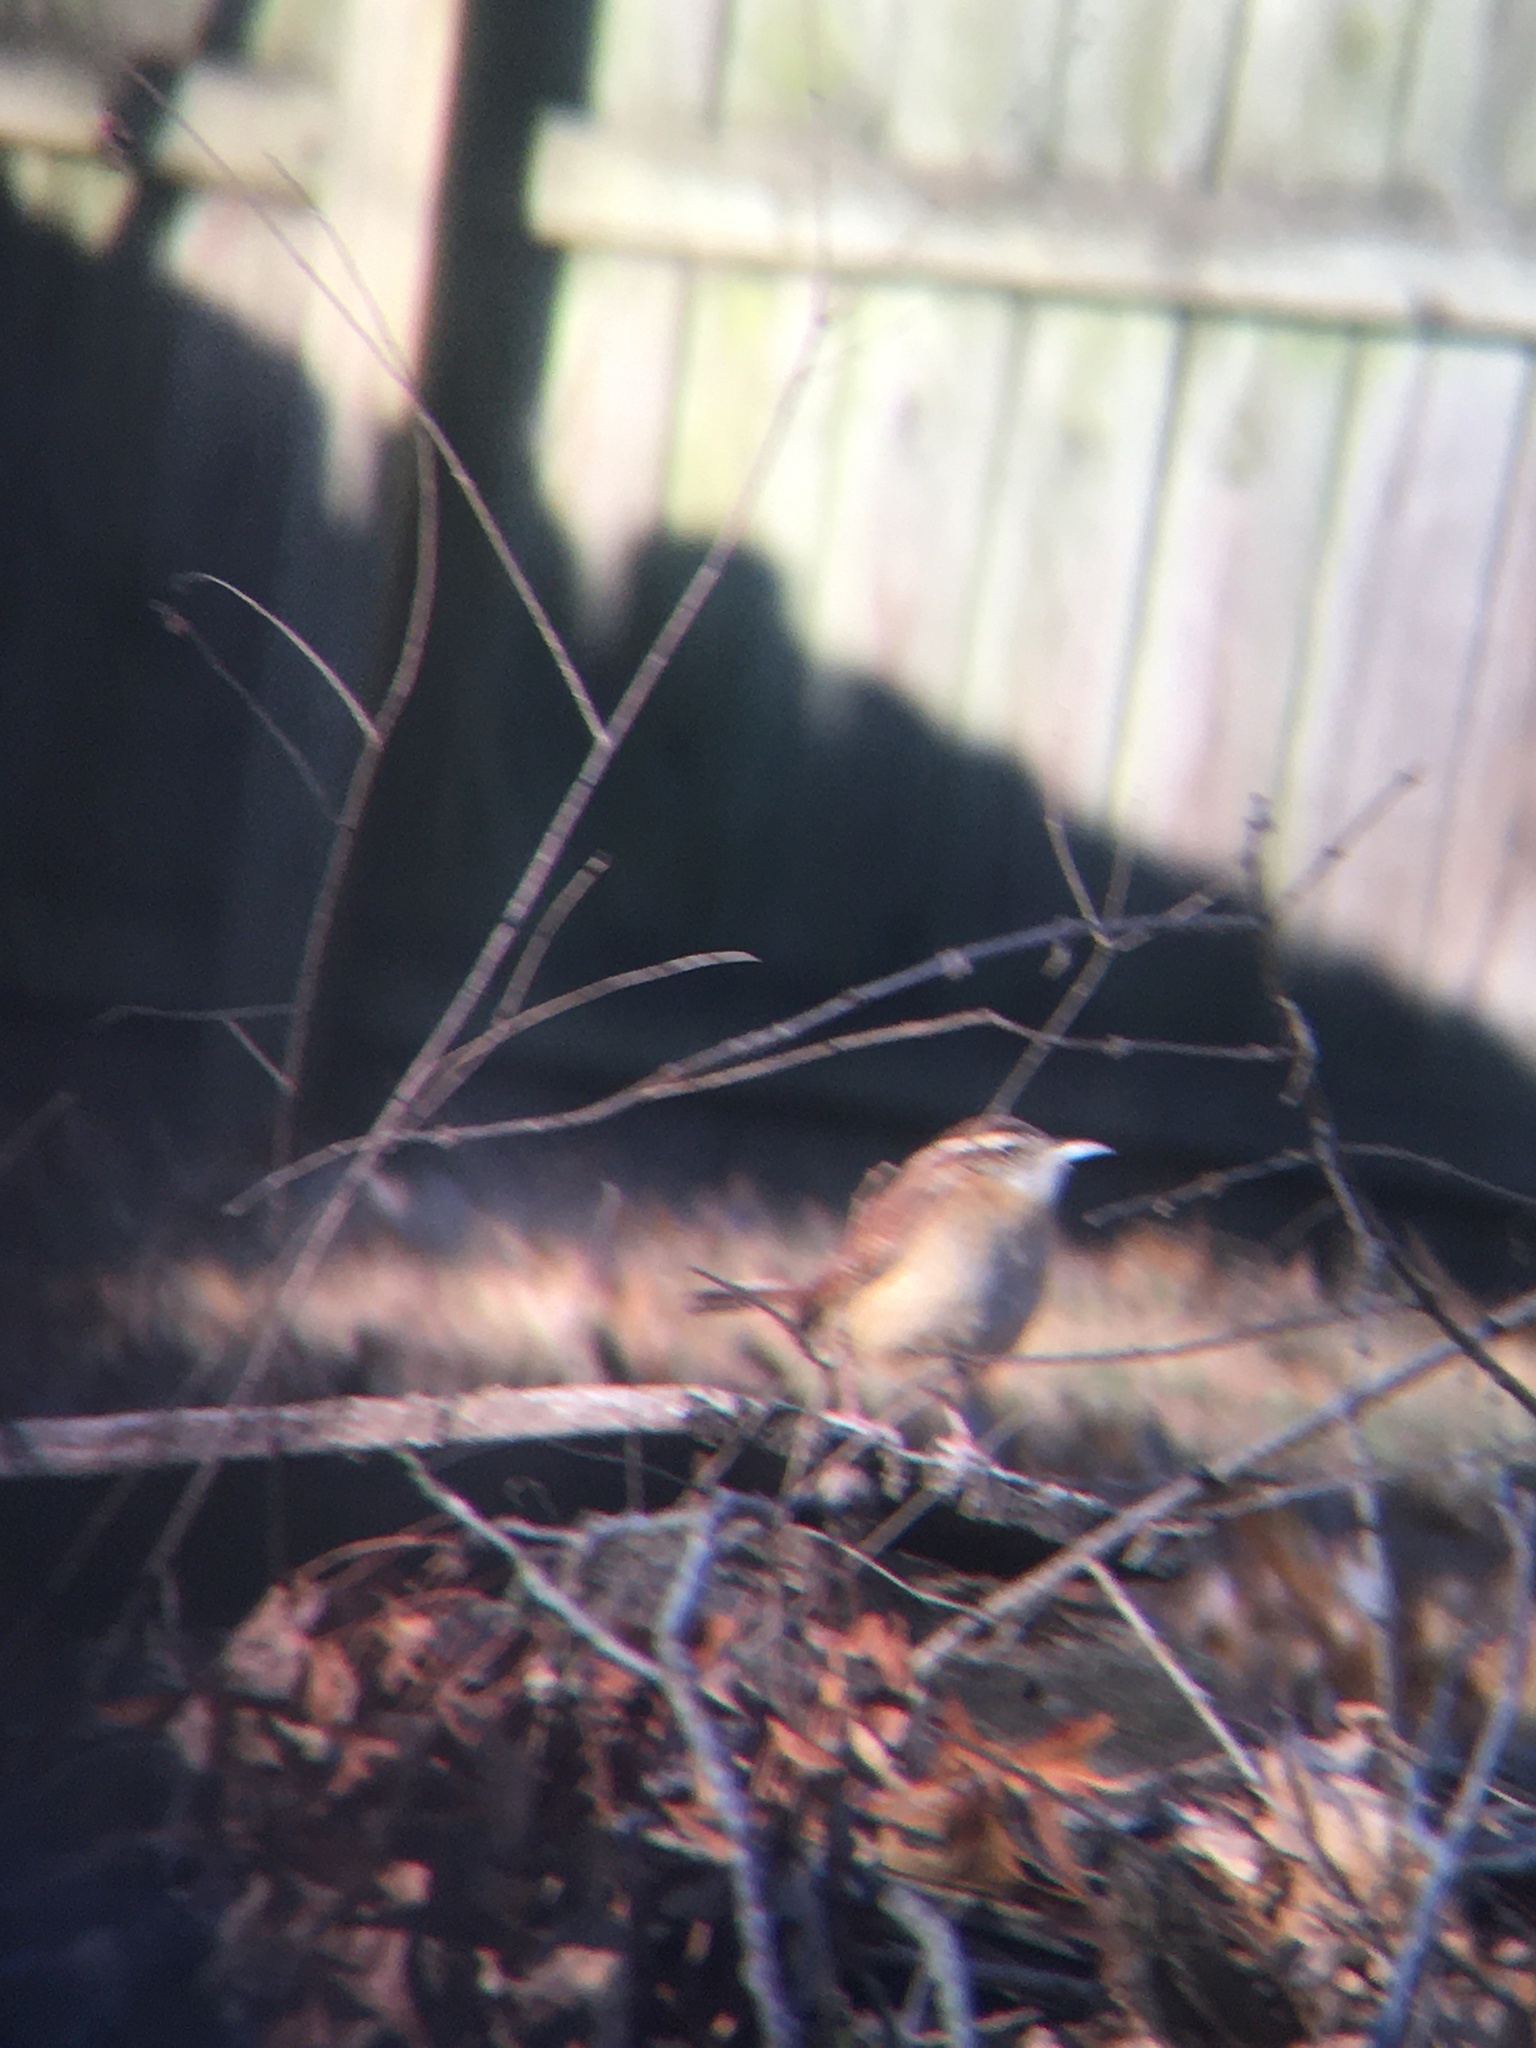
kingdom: Animalia
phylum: Chordata
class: Aves
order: Passeriformes
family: Troglodytidae
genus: Thryothorus
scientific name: Thryothorus ludovicianus
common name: Carolina wren
